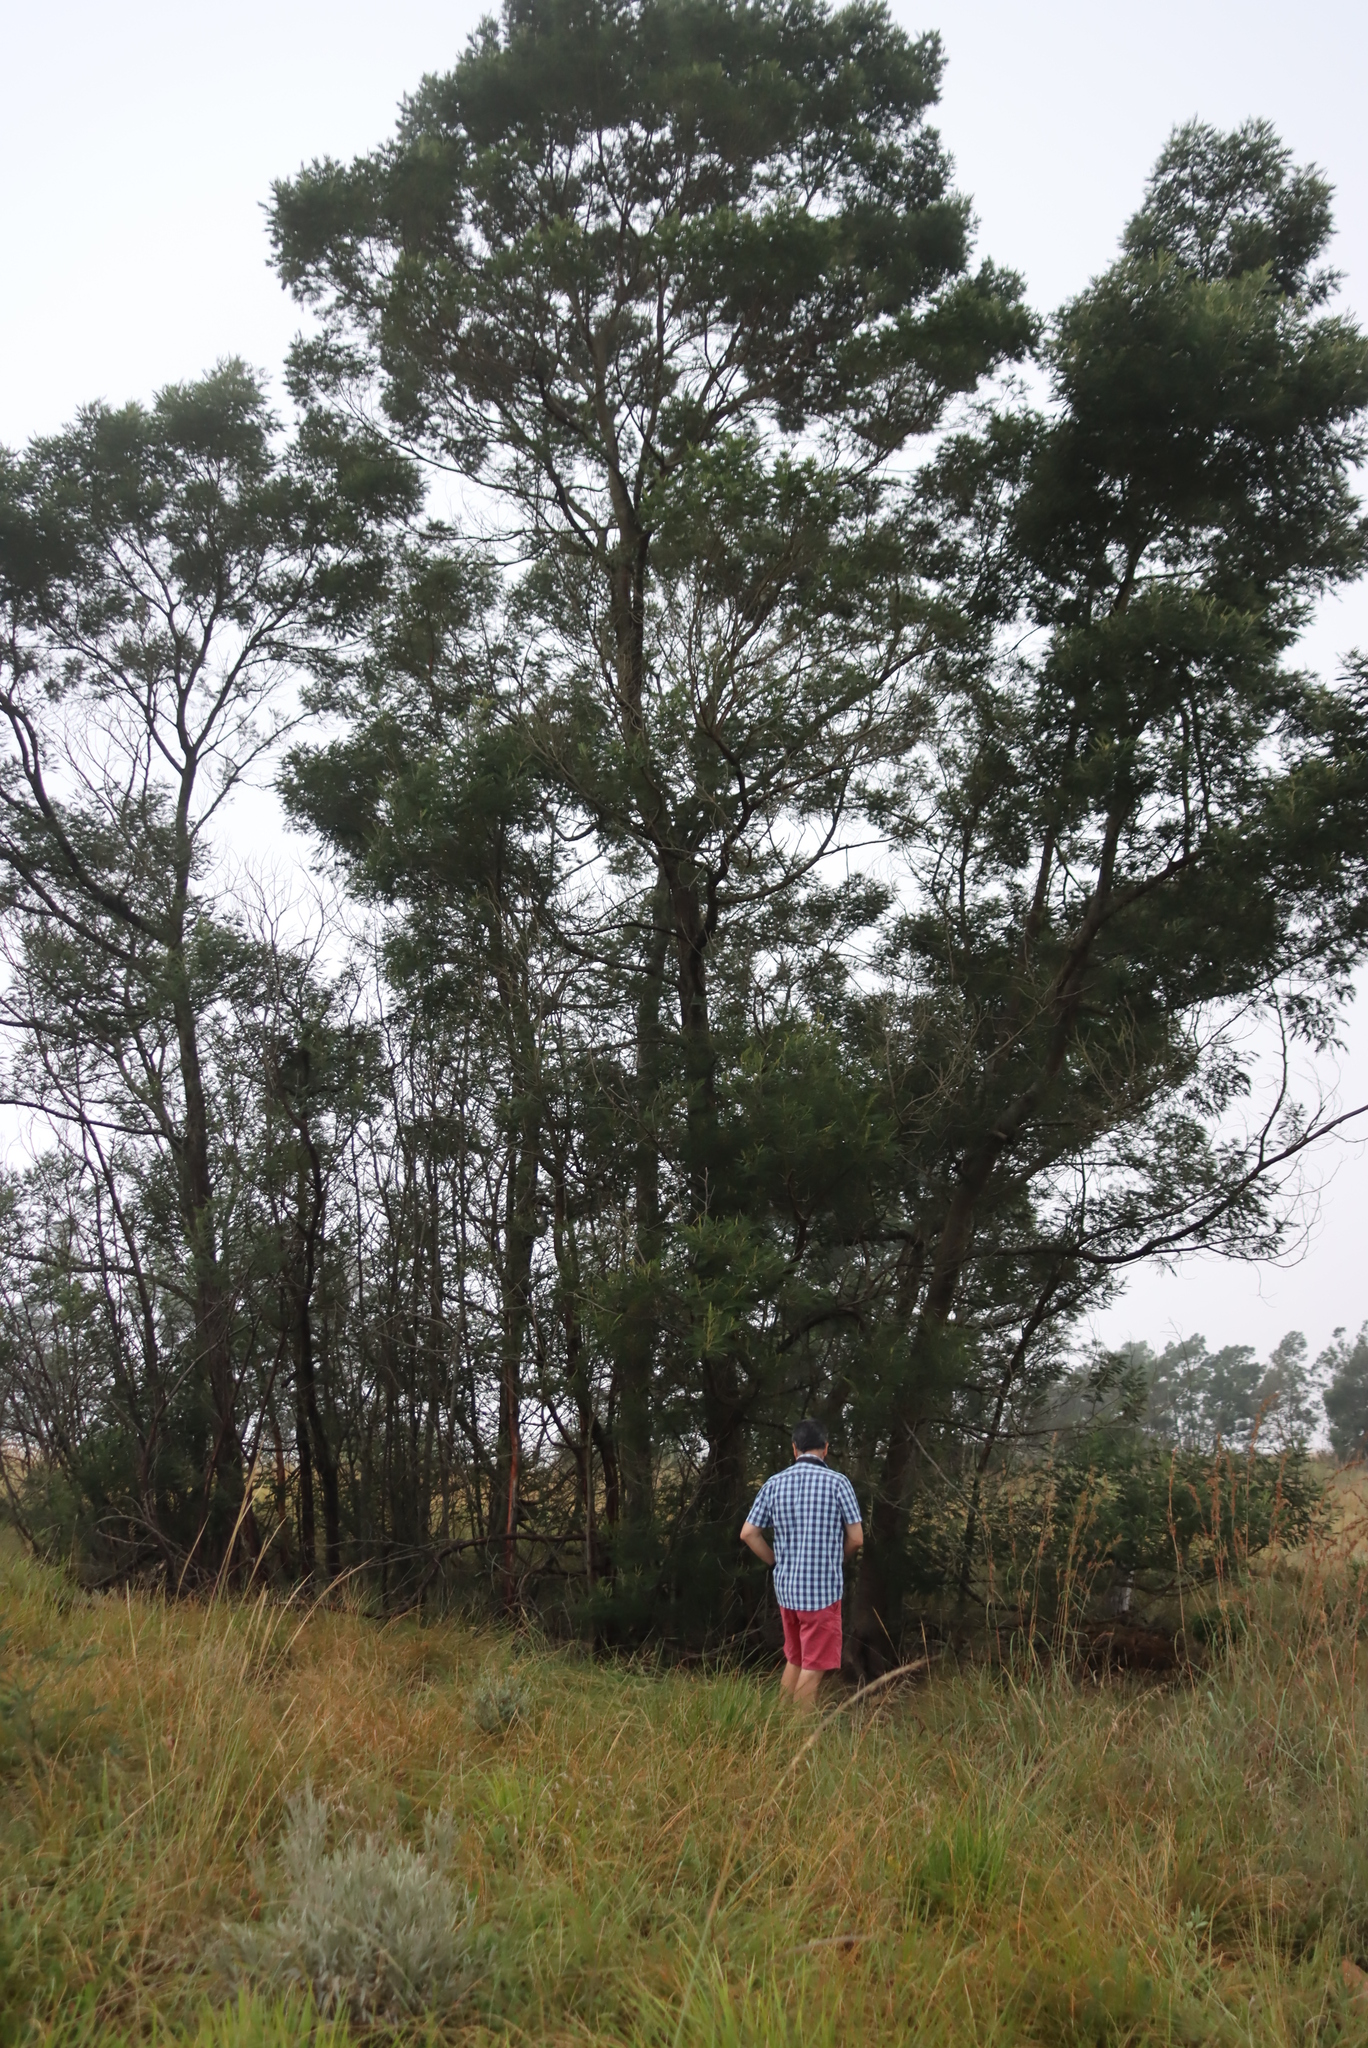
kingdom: Plantae
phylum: Tracheophyta
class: Magnoliopsida
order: Fabales
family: Fabaceae
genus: Acacia
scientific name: Acacia mearnsii
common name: Black wattle
